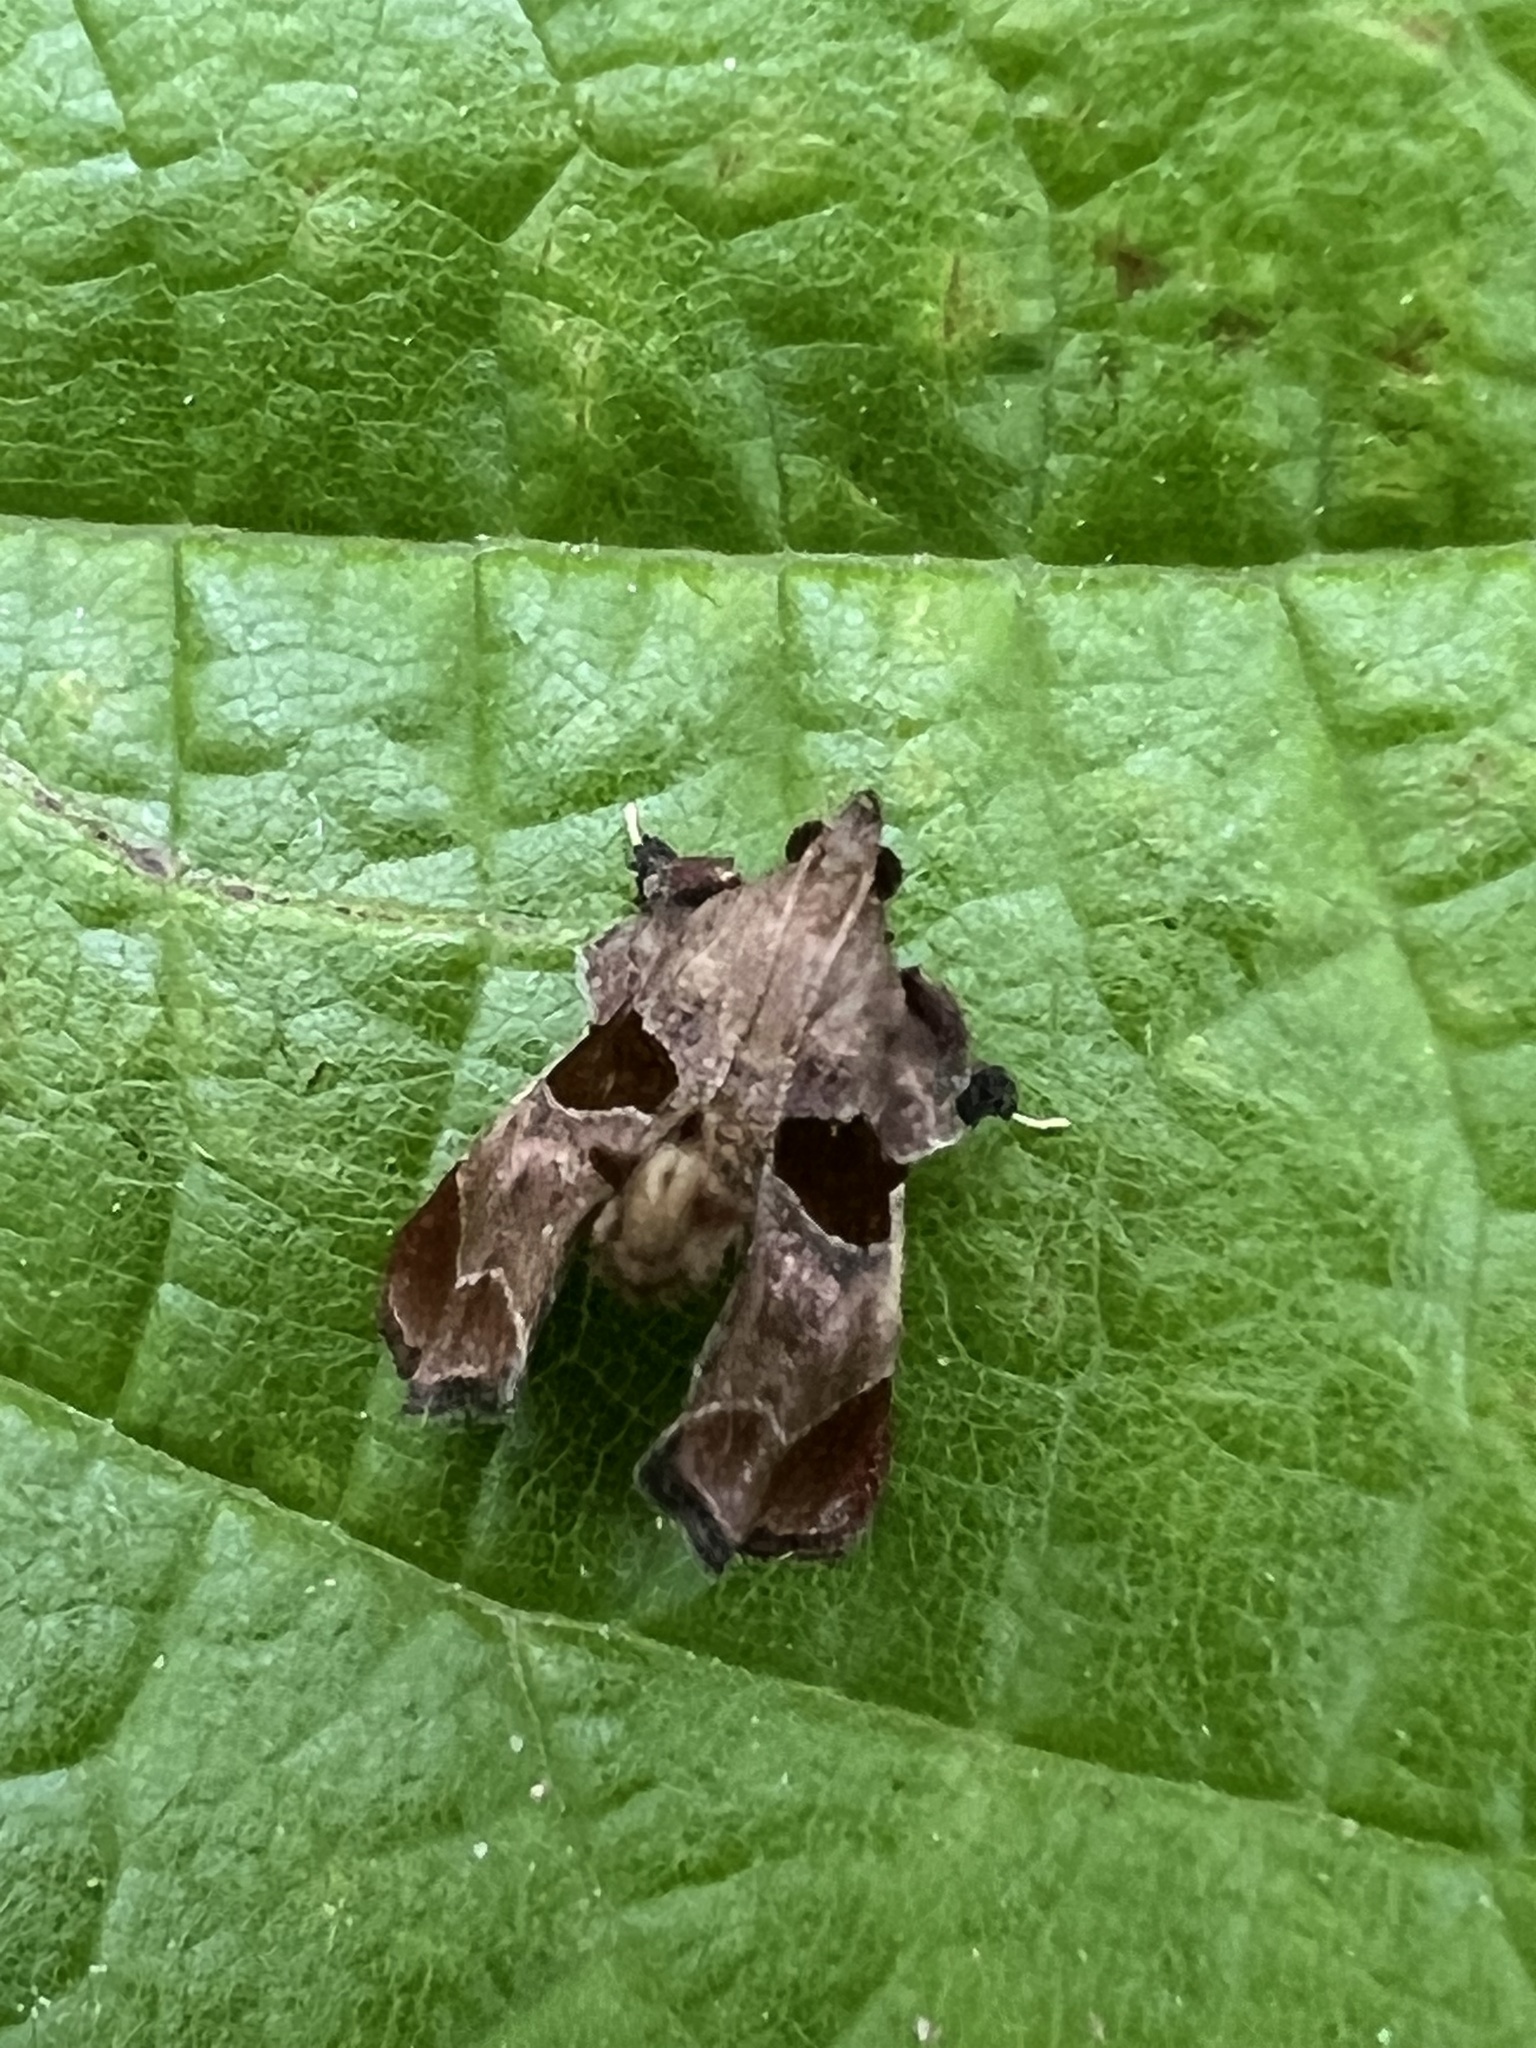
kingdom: Animalia
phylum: Arthropoda
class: Insecta
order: Lepidoptera
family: Pyralidae
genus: Tosale
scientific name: Tosale oviplagalis
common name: Dimorphic tosale moth
